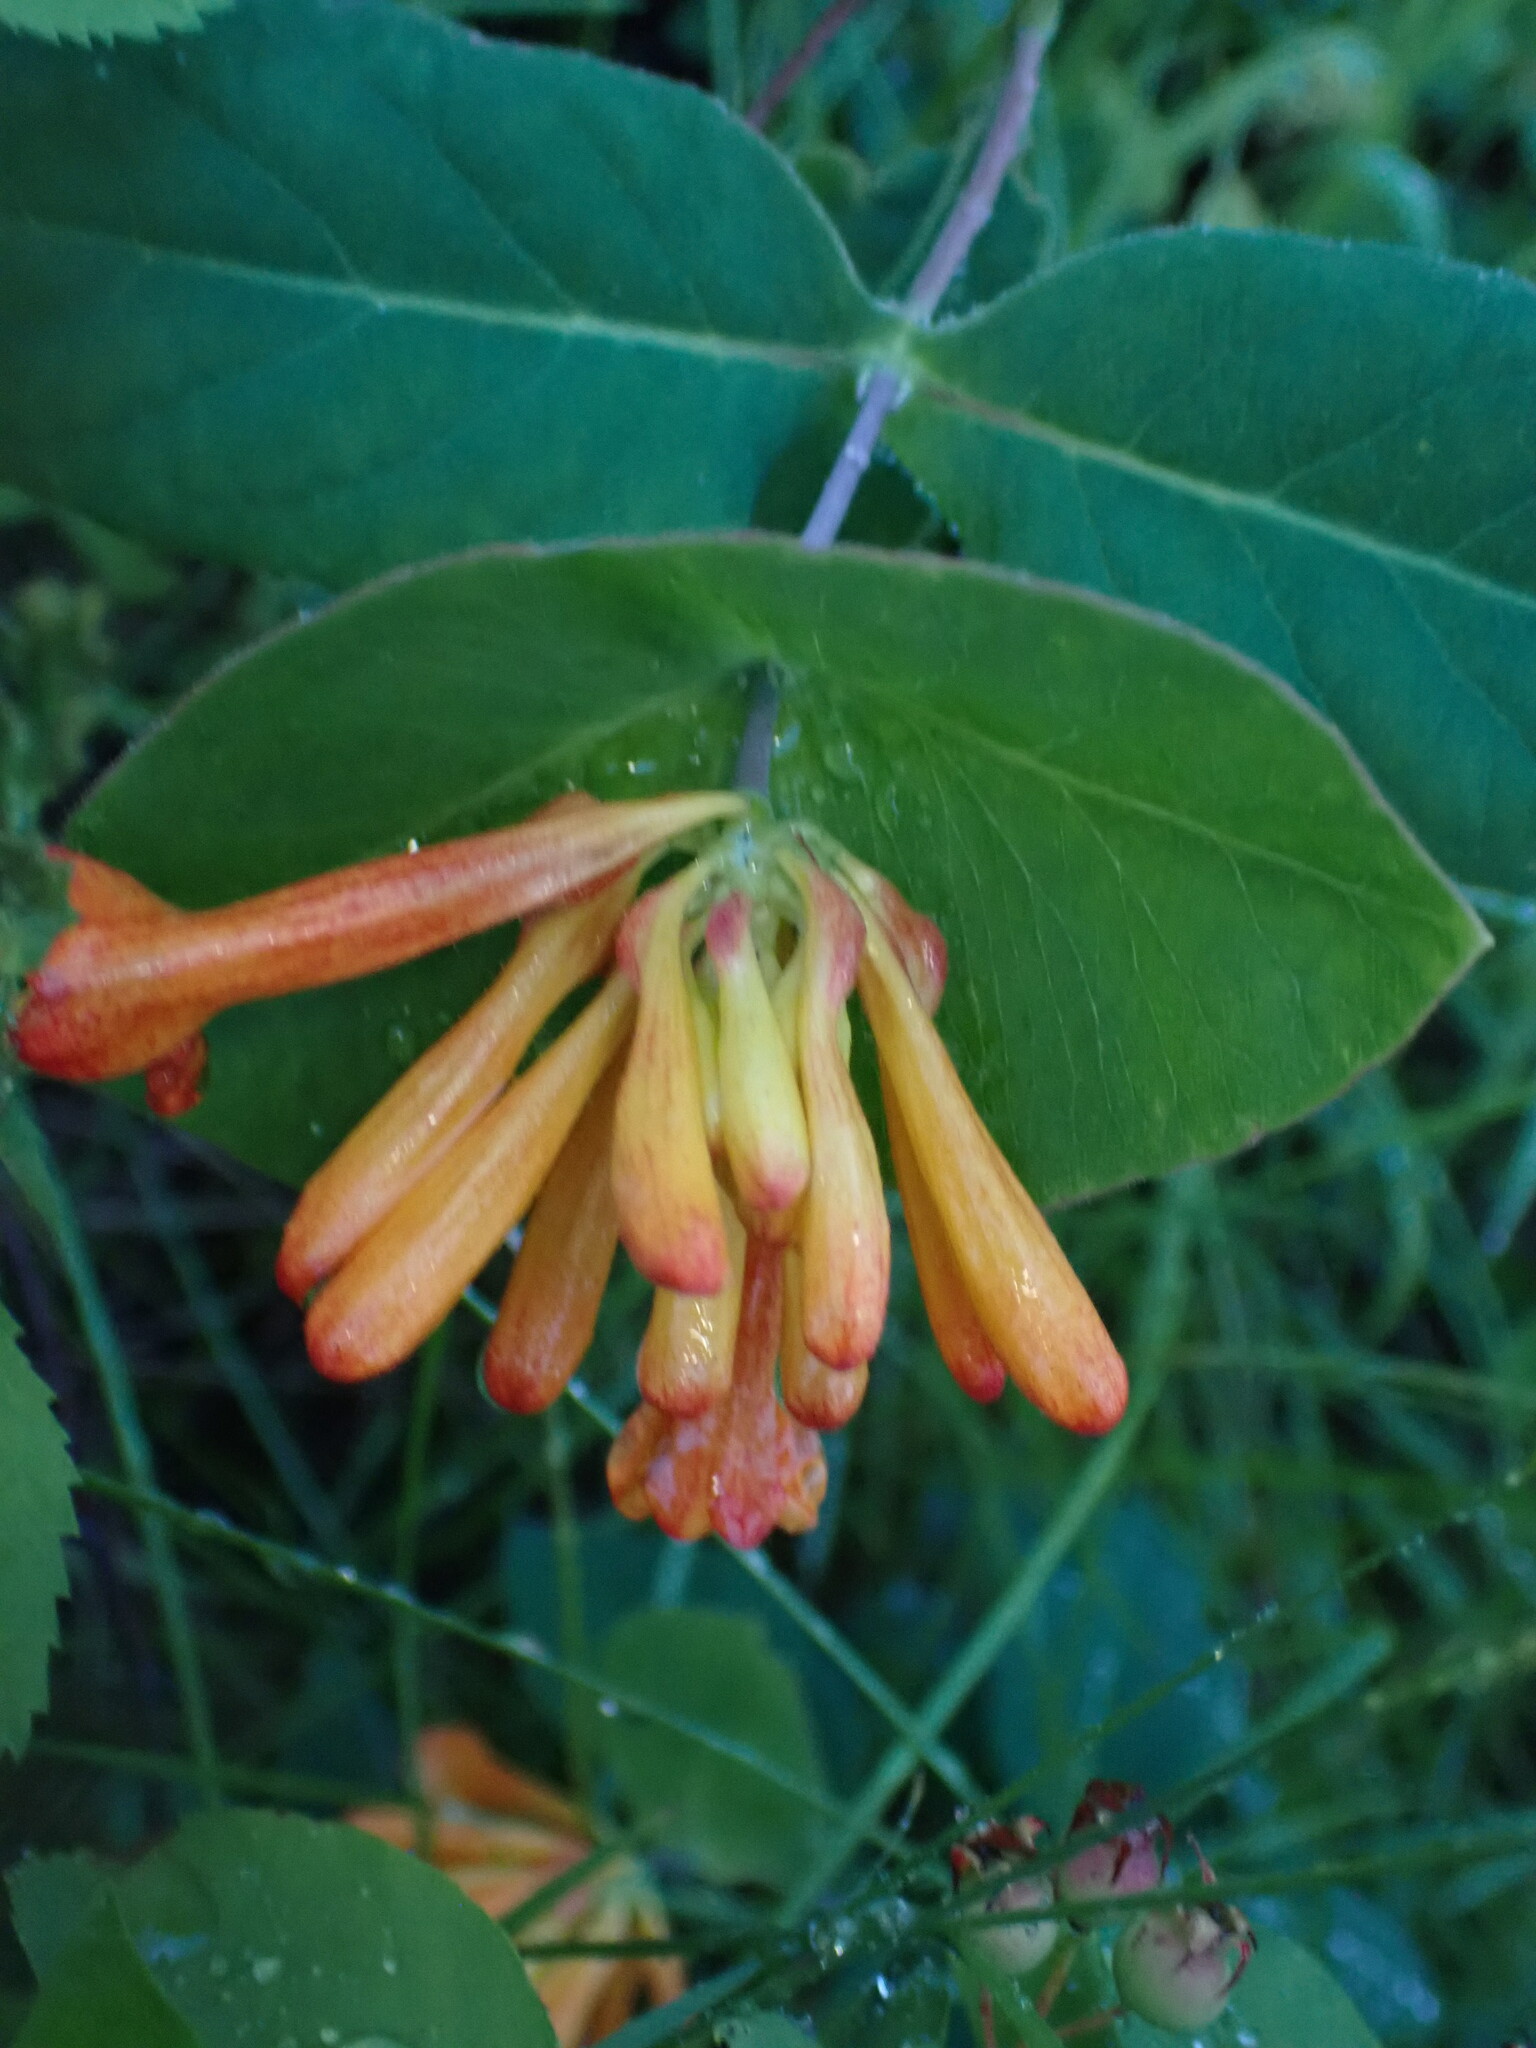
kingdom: Plantae
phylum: Tracheophyta
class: Magnoliopsida
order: Dipsacales
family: Caprifoliaceae
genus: Lonicera
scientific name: Lonicera ciliosa
